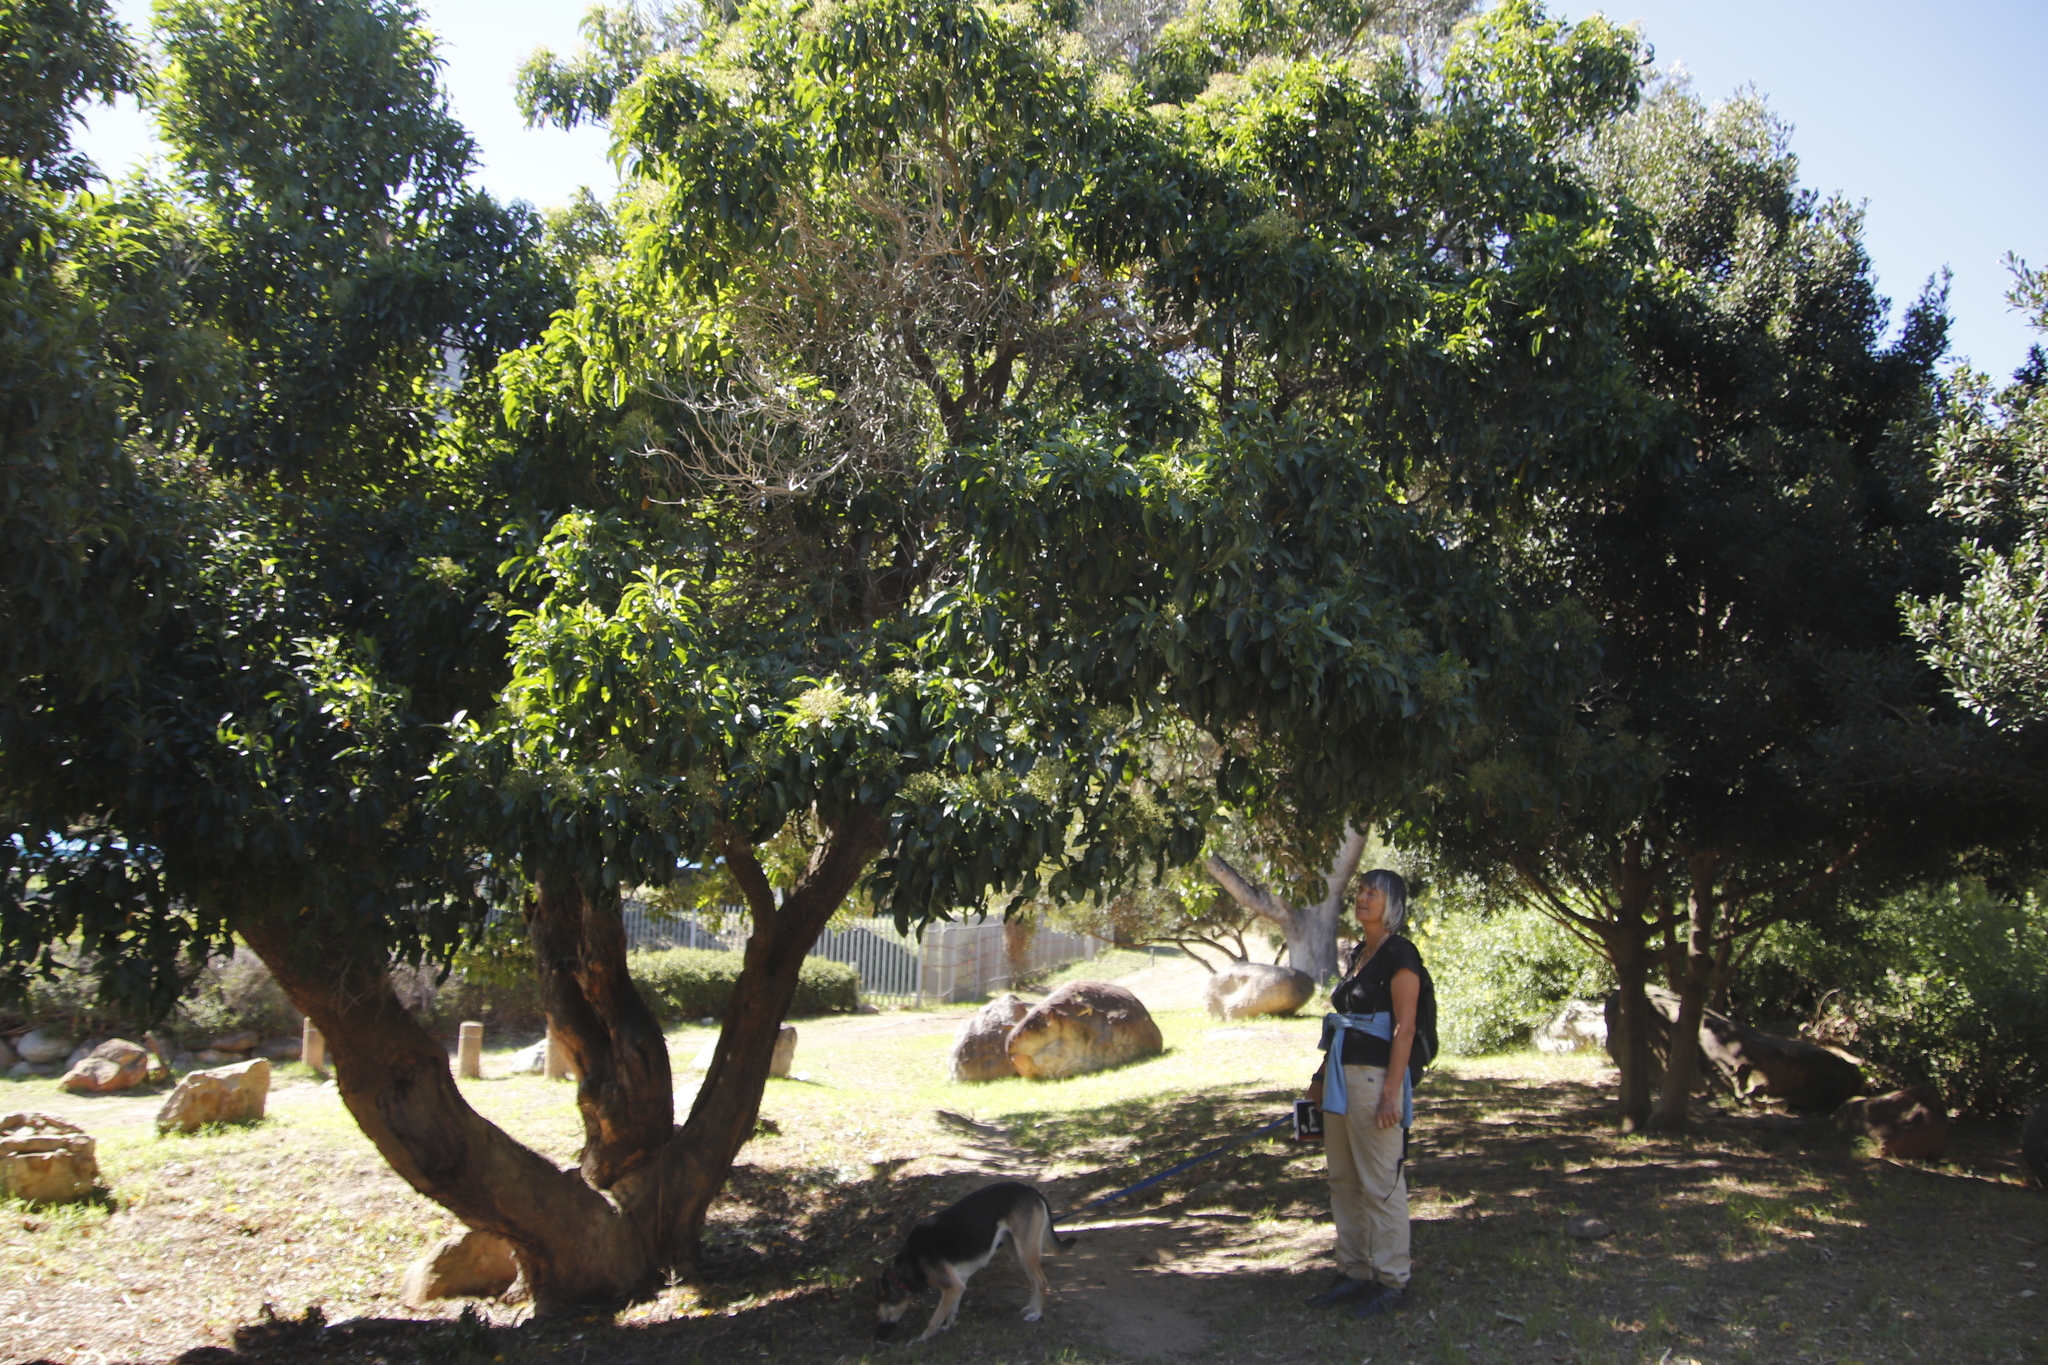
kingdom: Plantae
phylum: Tracheophyta
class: Magnoliopsida
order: Lamiales
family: Stilbaceae
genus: Nuxia
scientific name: Nuxia floribunda
